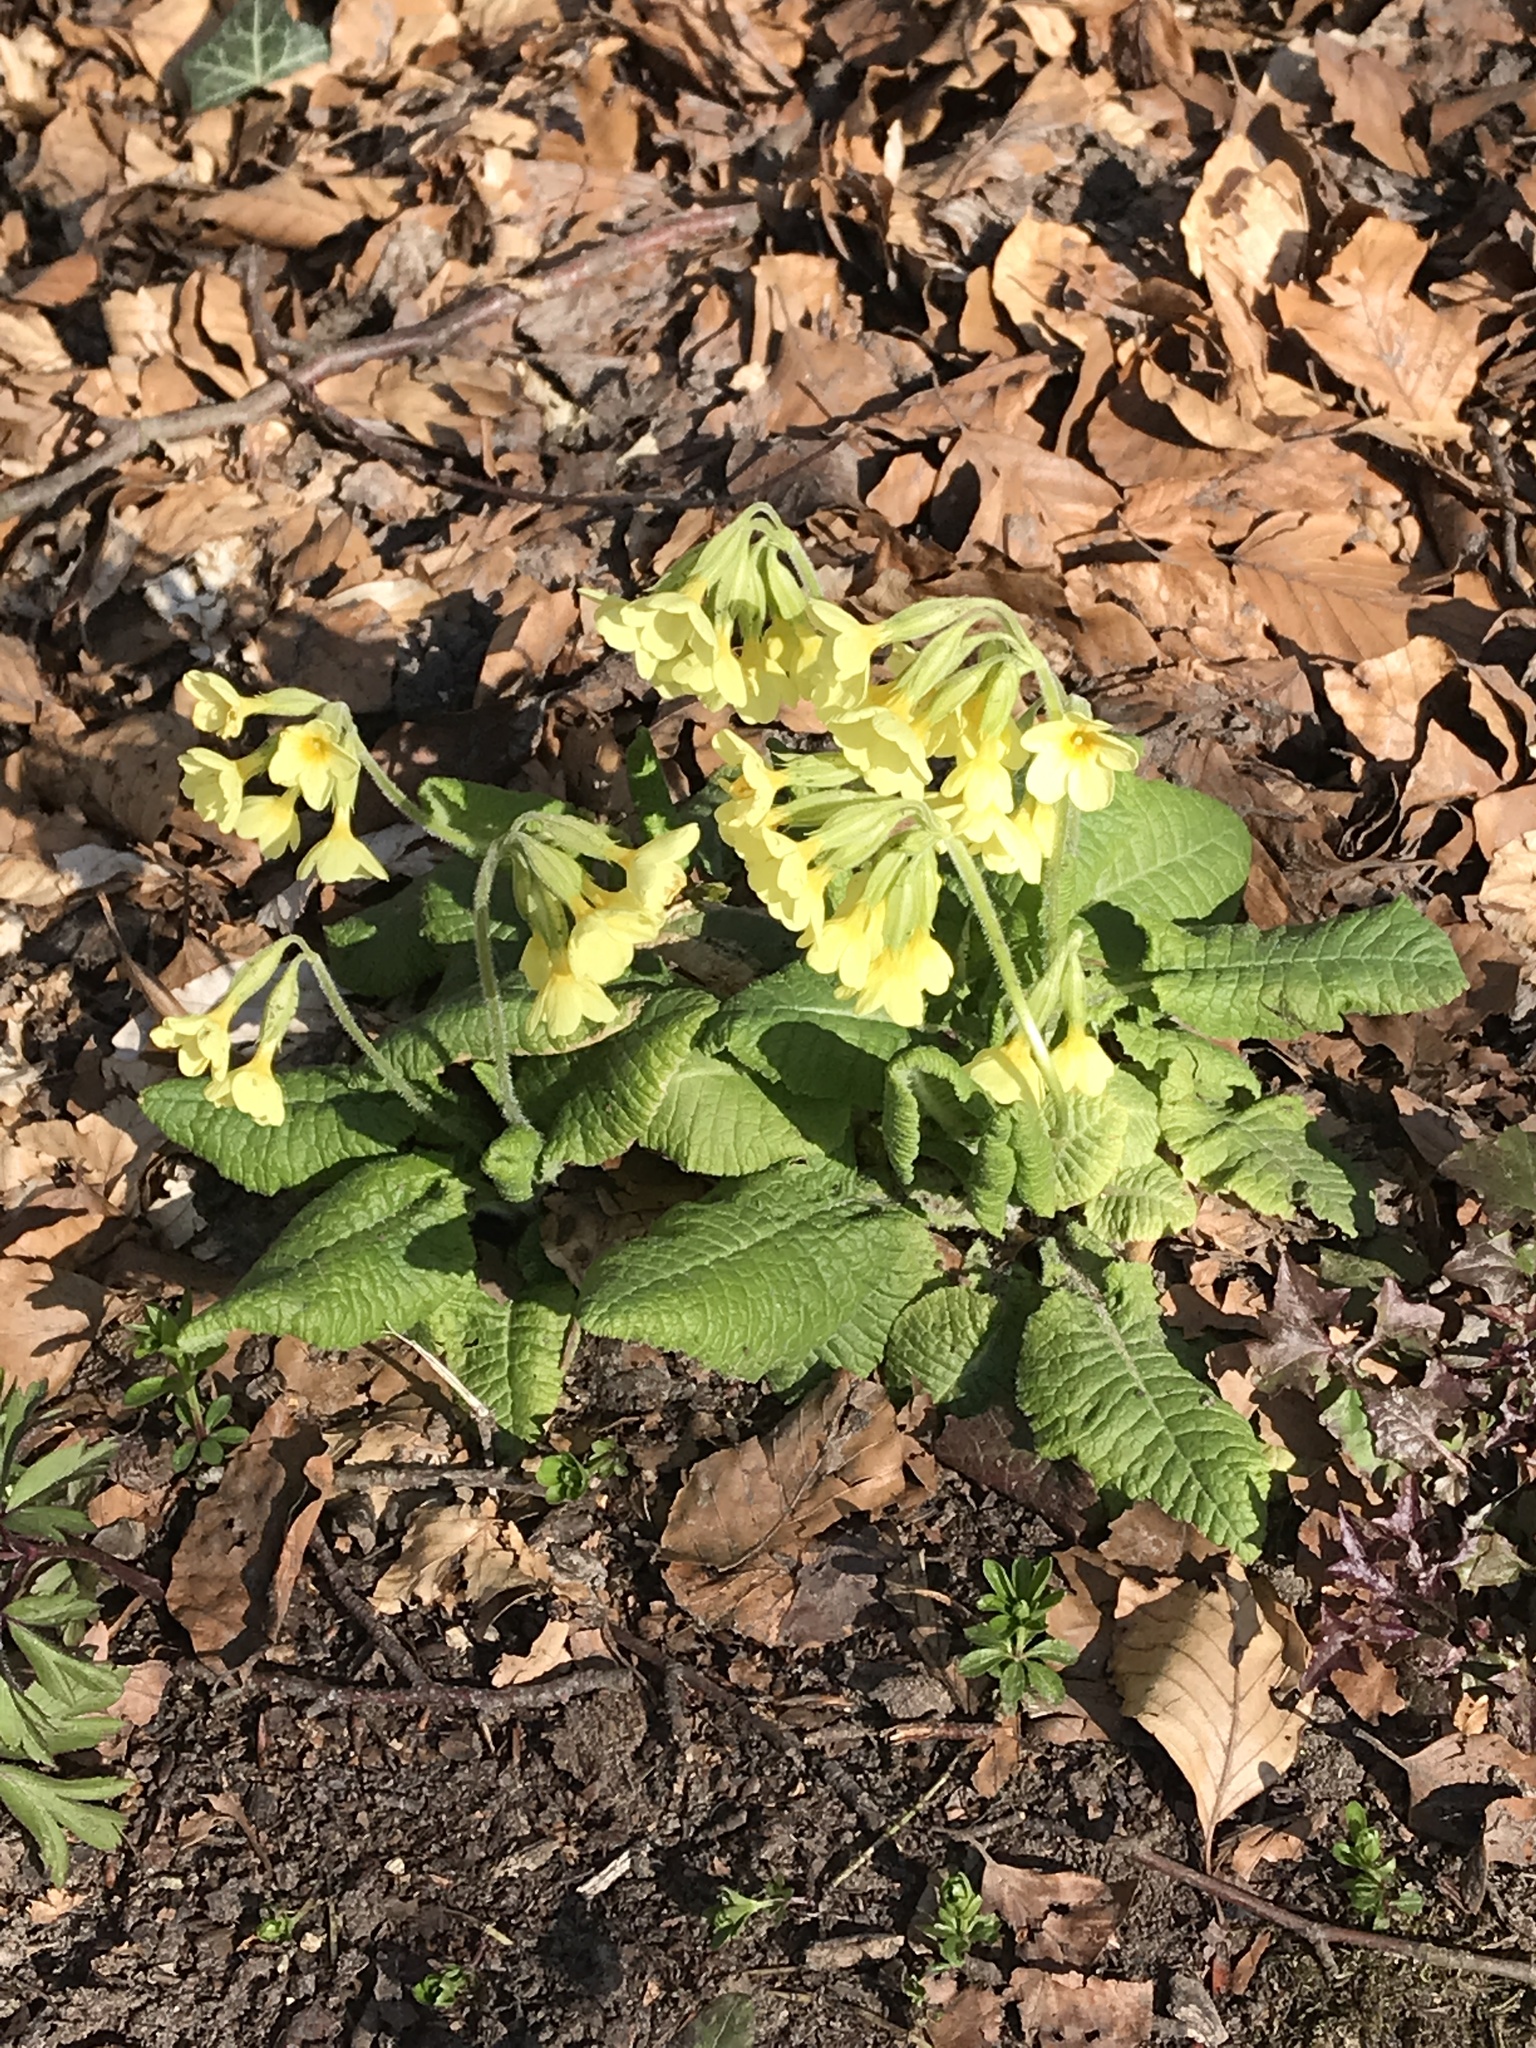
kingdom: Plantae
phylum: Tracheophyta
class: Magnoliopsida
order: Ericales
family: Primulaceae
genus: Primula
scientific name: Primula elatior
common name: Oxlip
